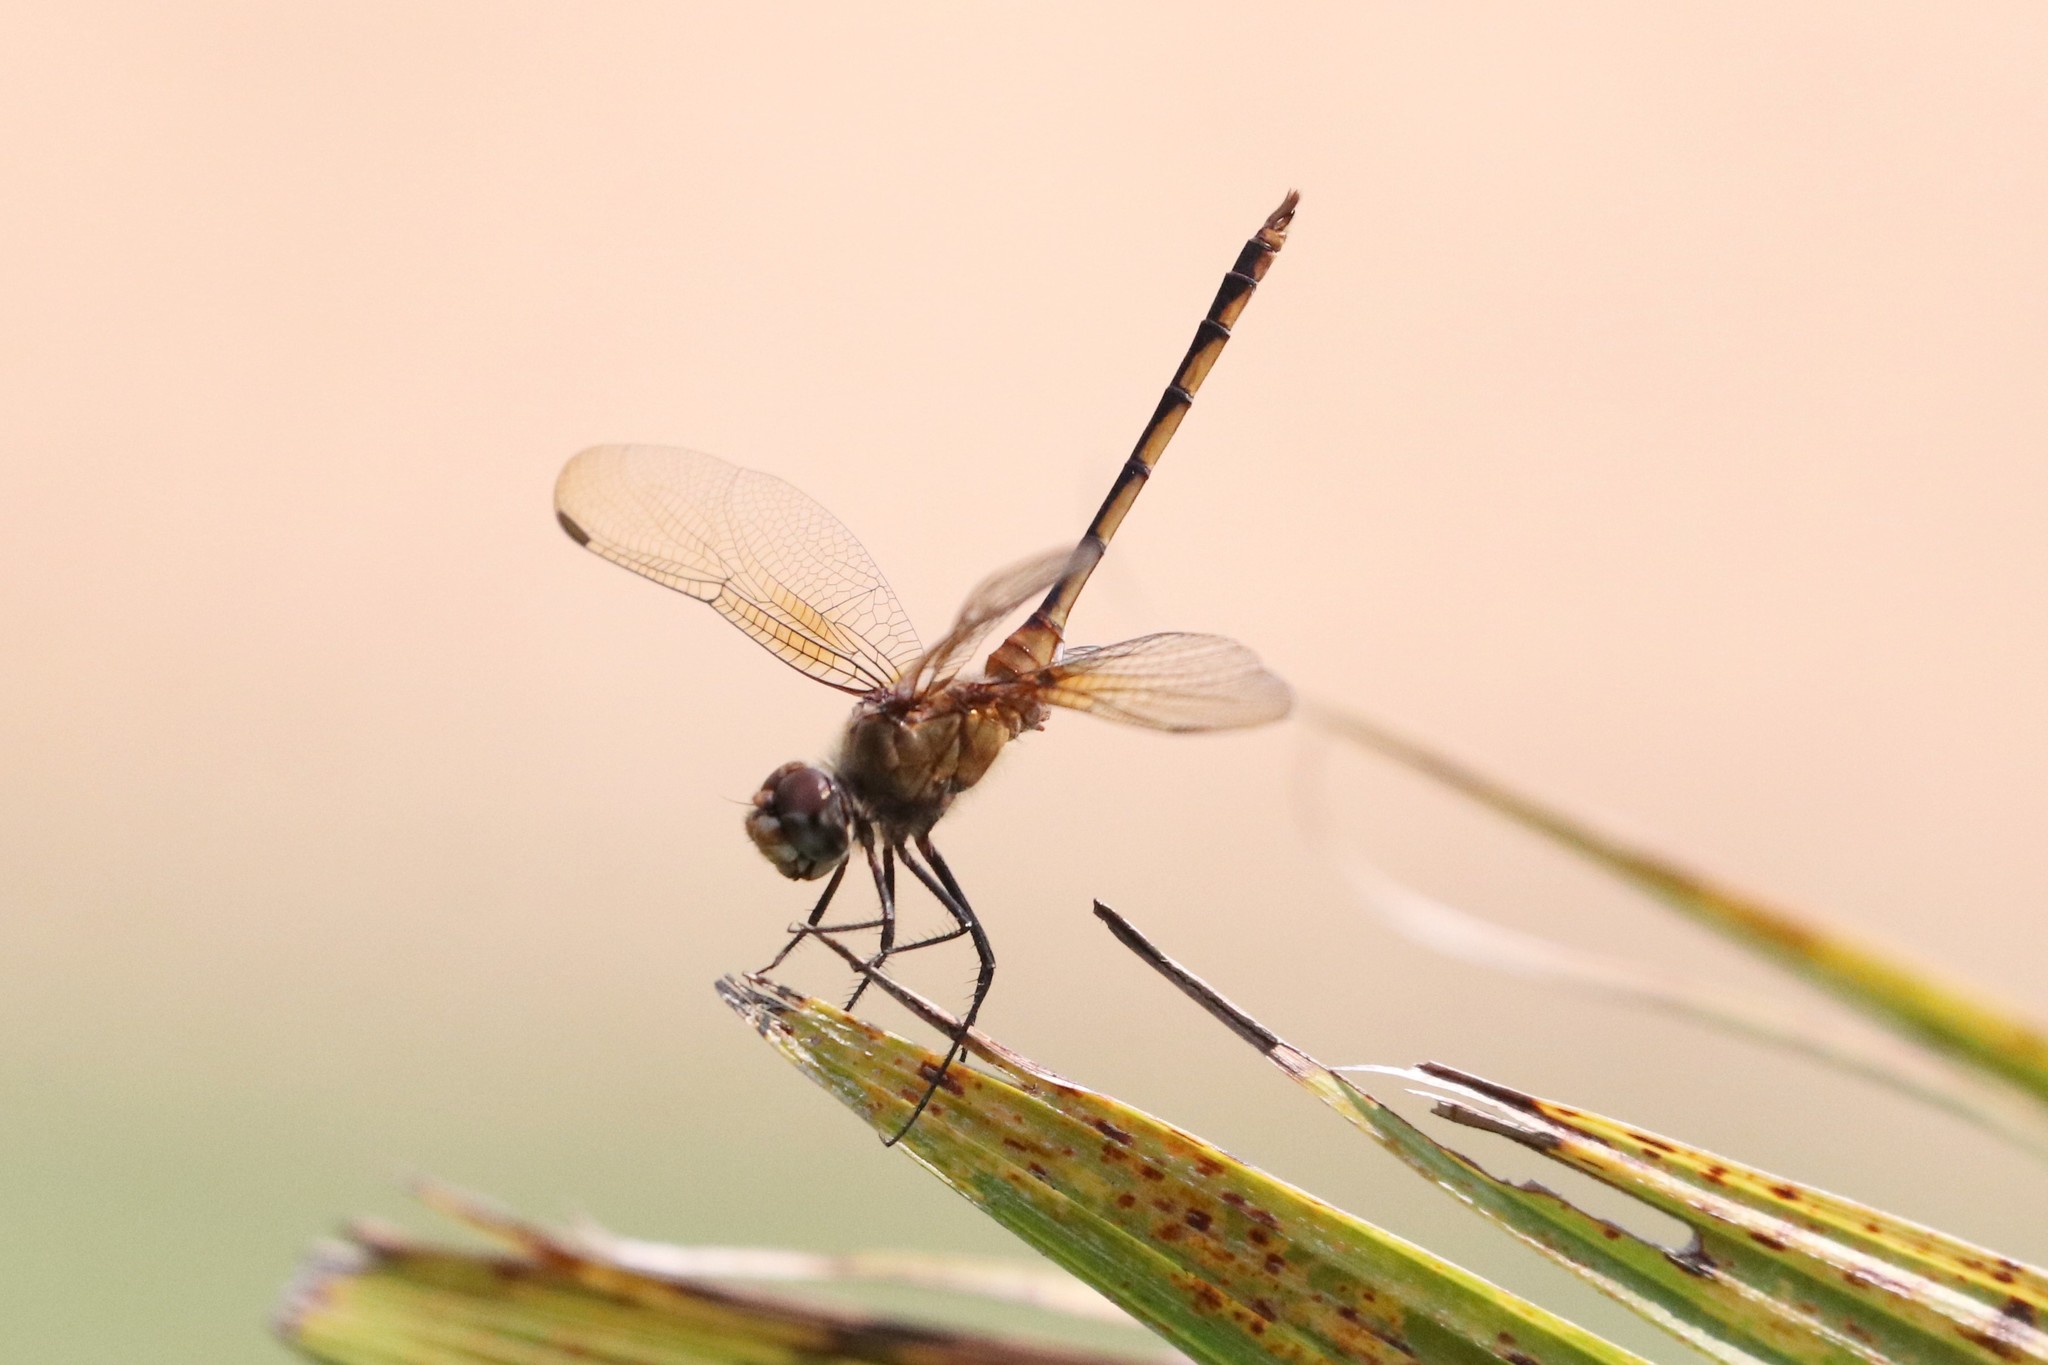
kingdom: Animalia
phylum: Arthropoda
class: Insecta
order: Odonata
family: Libellulidae
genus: Brachymesia
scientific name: Brachymesia herbida
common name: Tawny pennant
